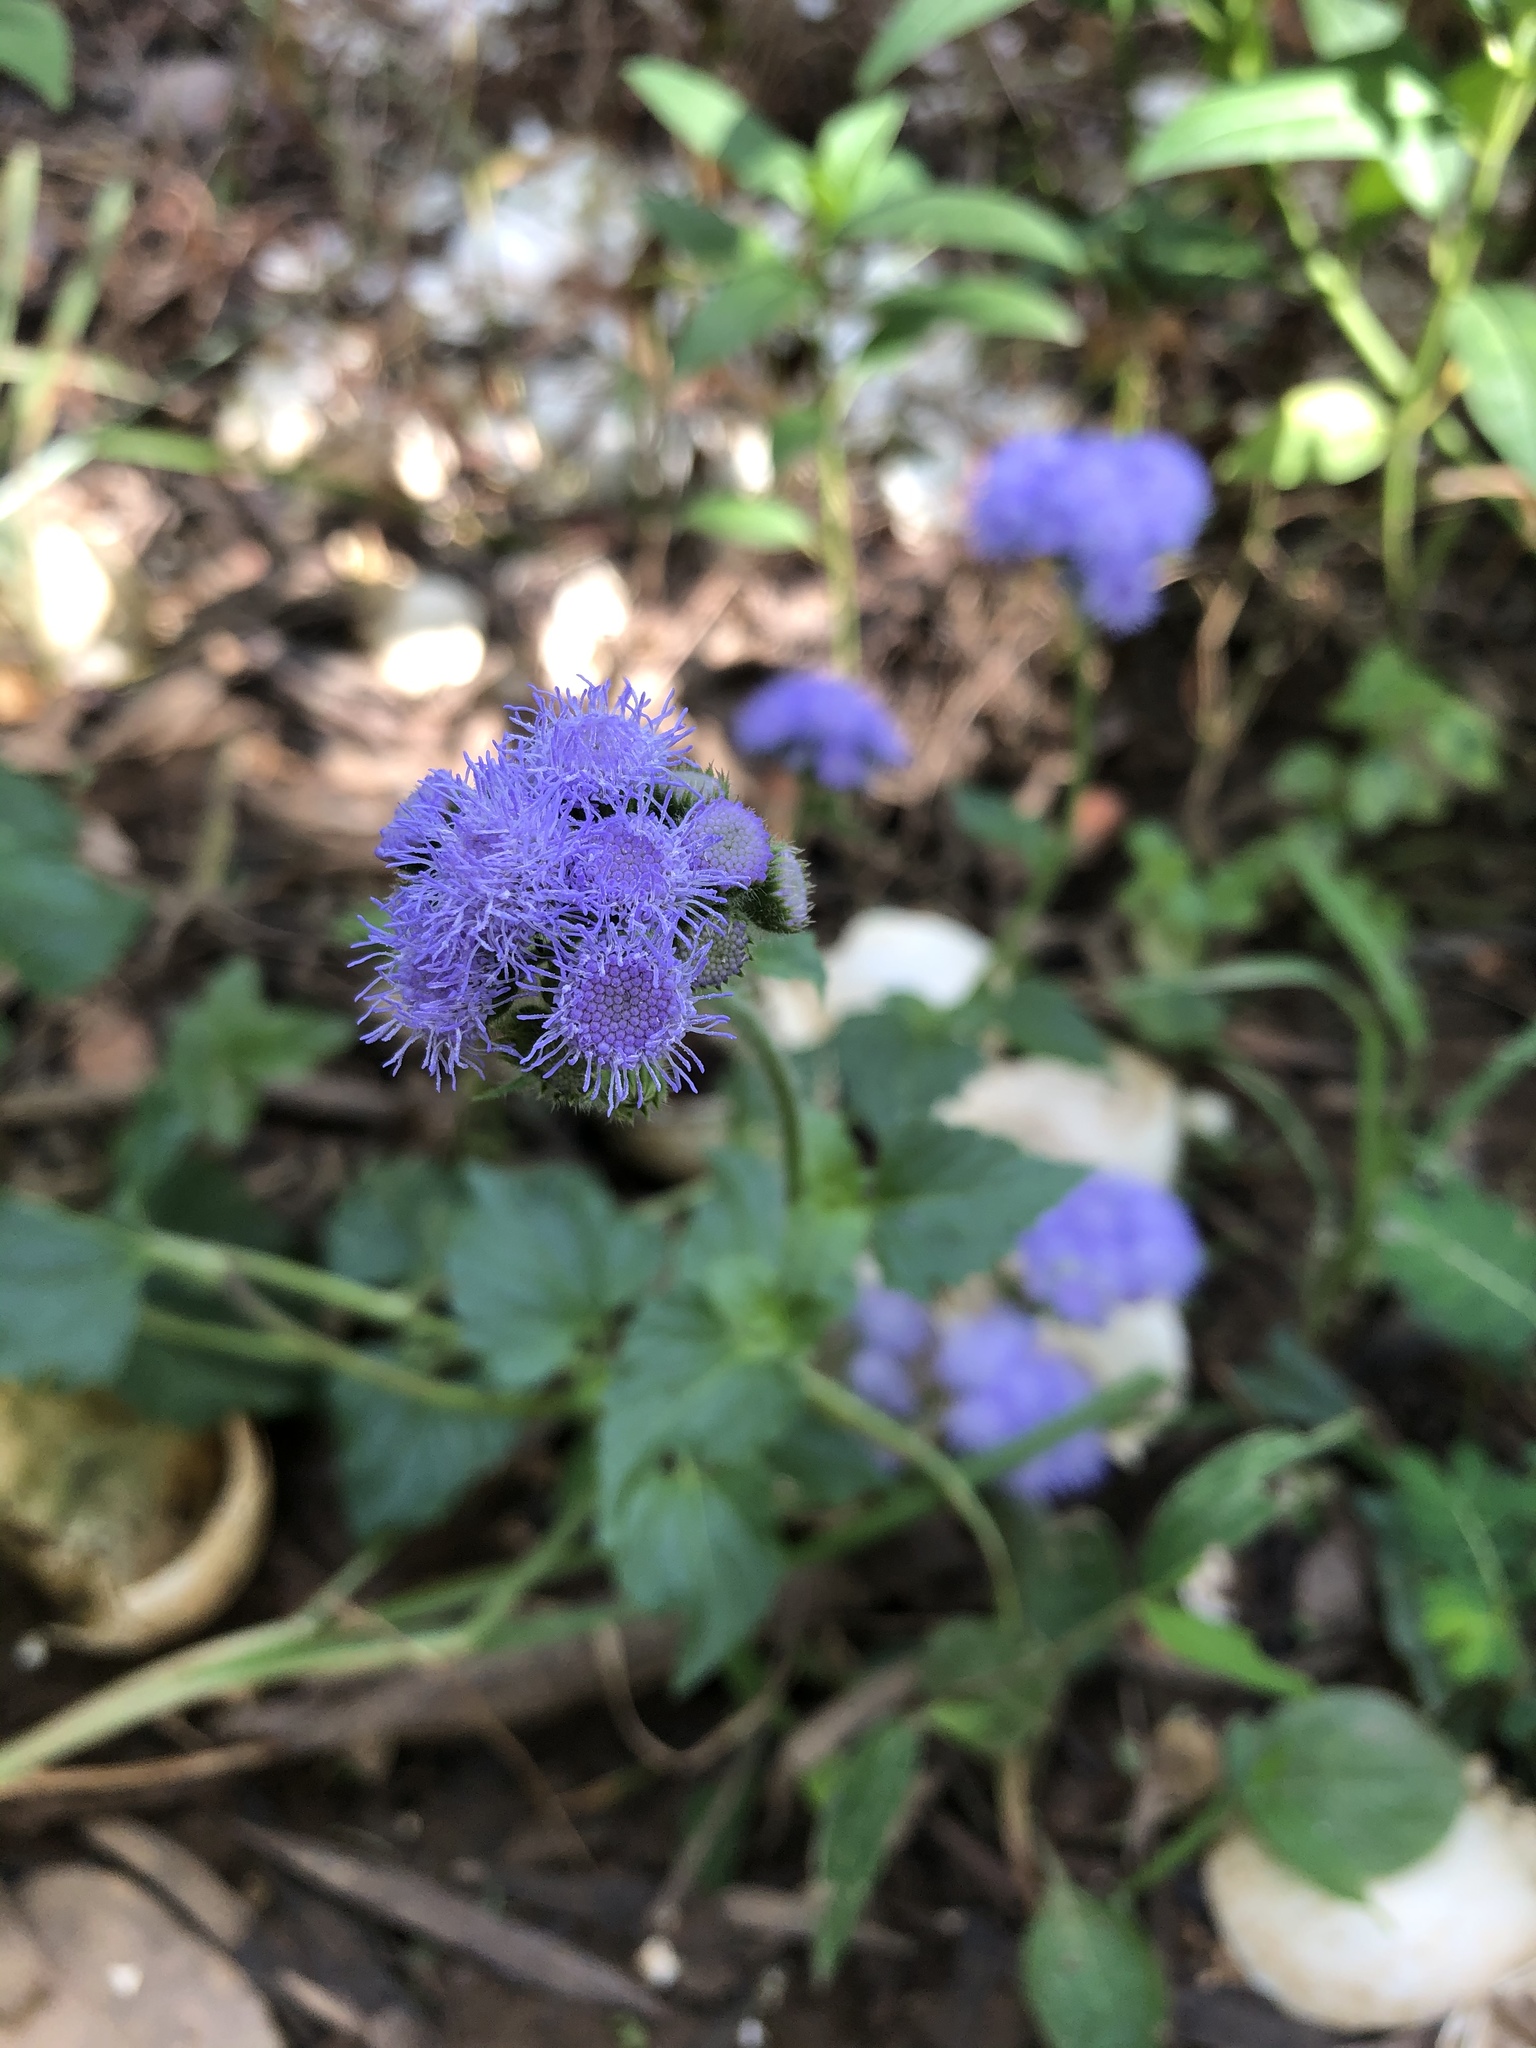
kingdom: Plantae
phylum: Tracheophyta
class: Magnoliopsida
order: Asterales
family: Asteraceae
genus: Ageratum
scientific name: Ageratum houstonianum
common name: Bluemink
